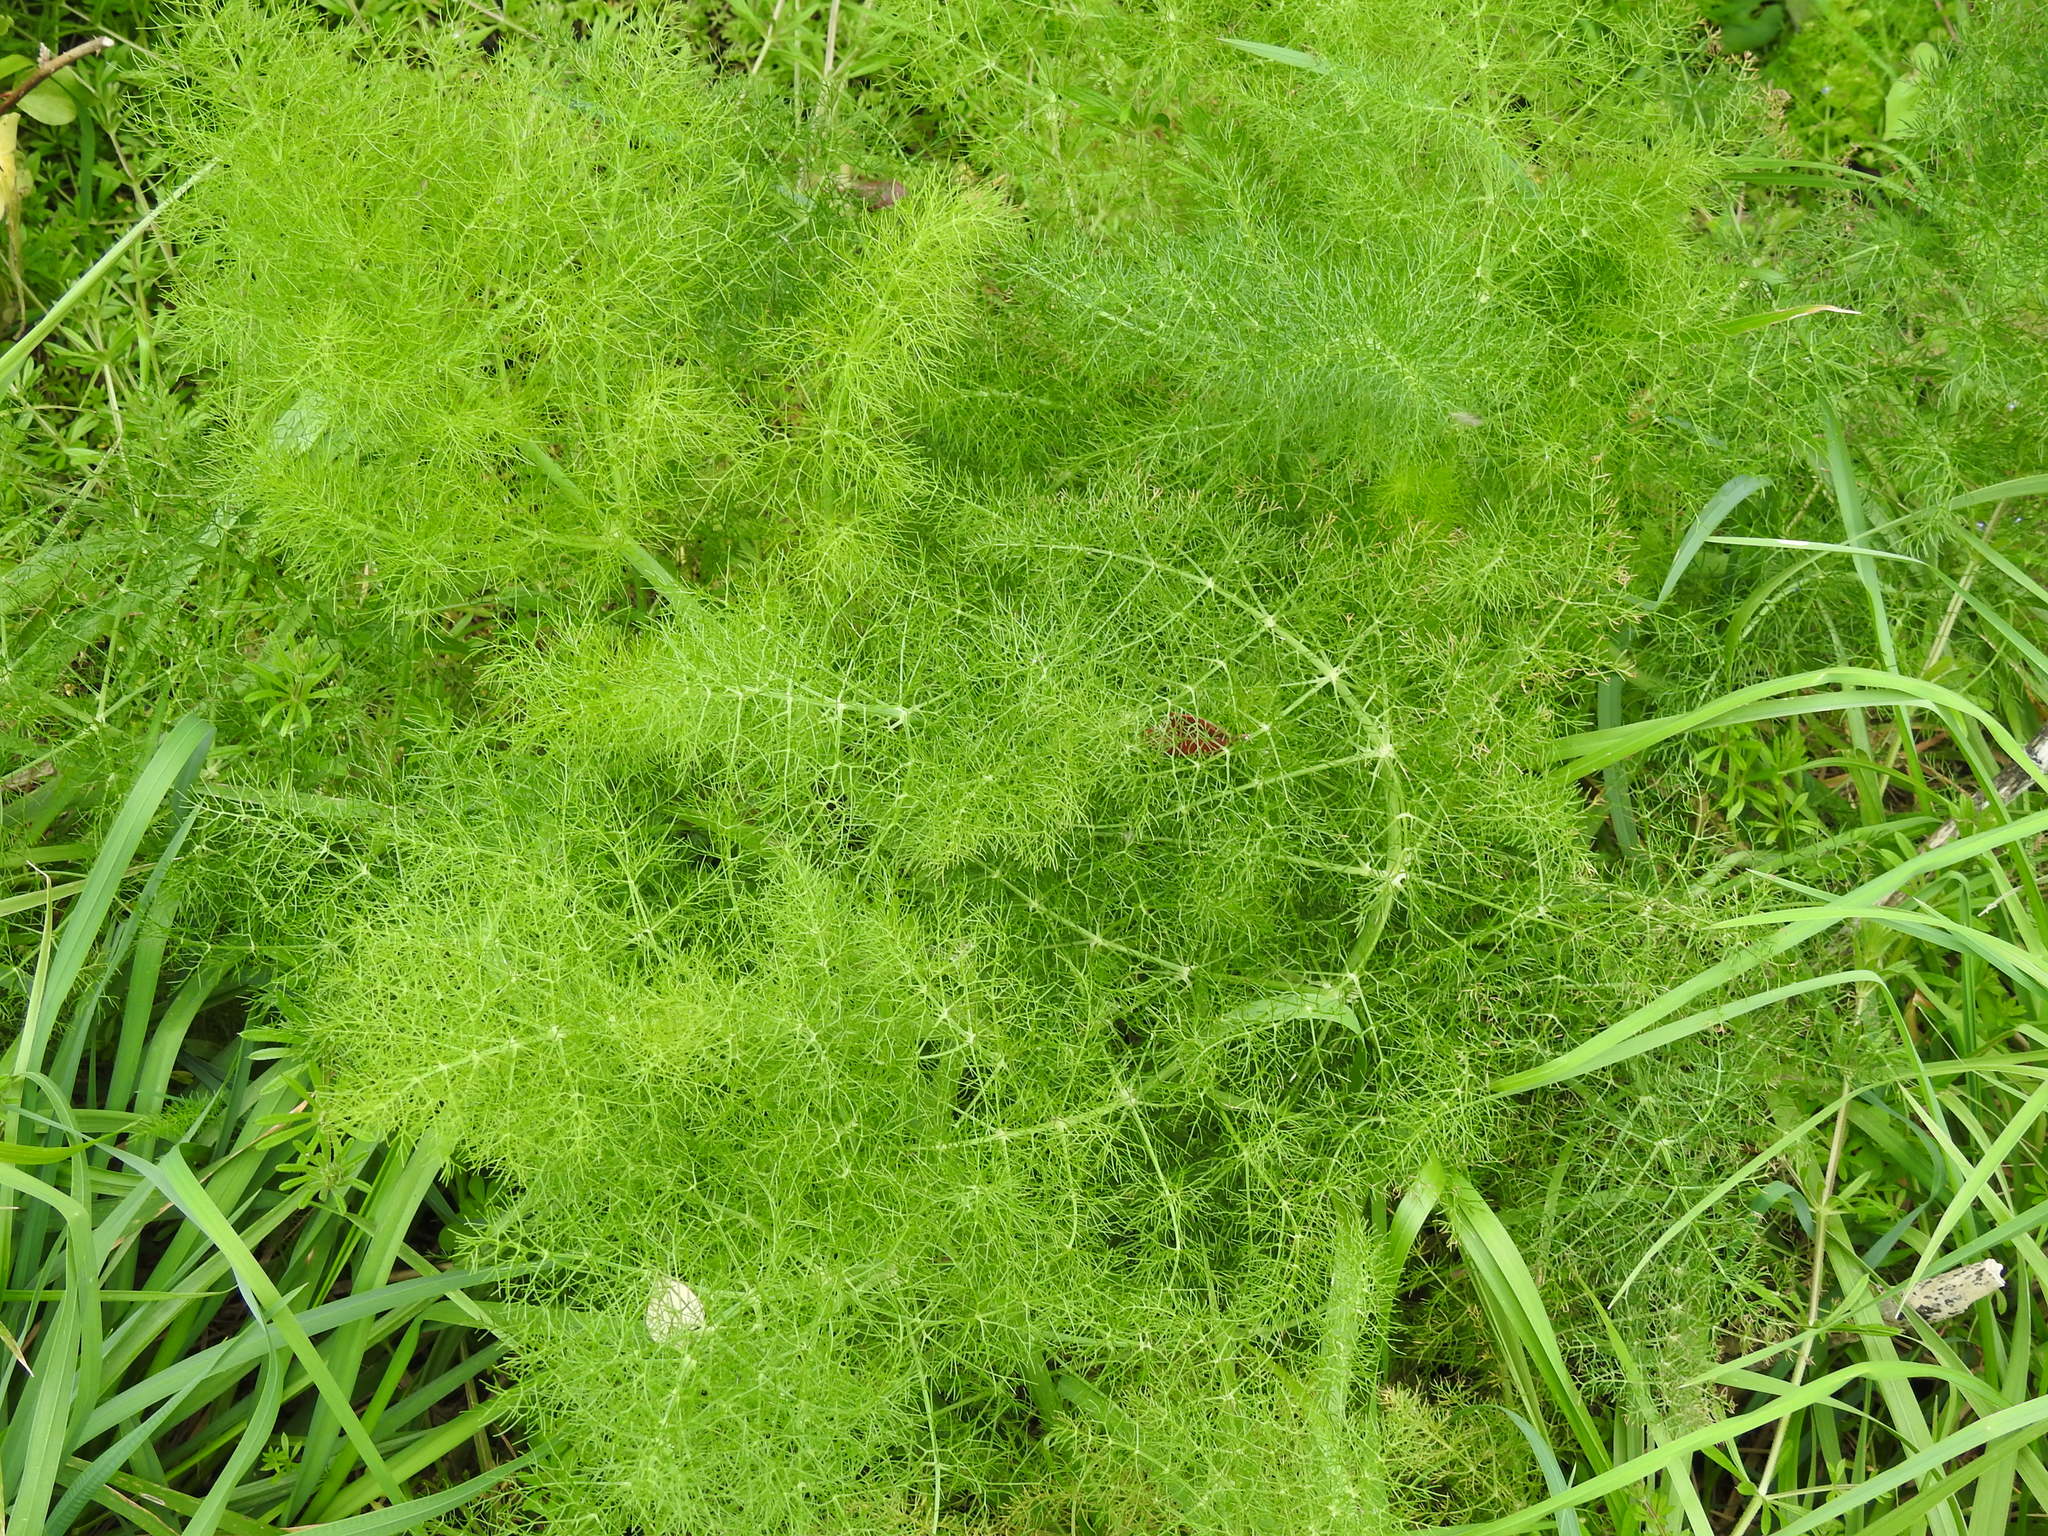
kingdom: Plantae
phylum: Tracheophyta
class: Magnoliopsida
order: Apiales
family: Apiaceae
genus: Foeniculum
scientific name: Foeniculum vulgare
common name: Fennel
